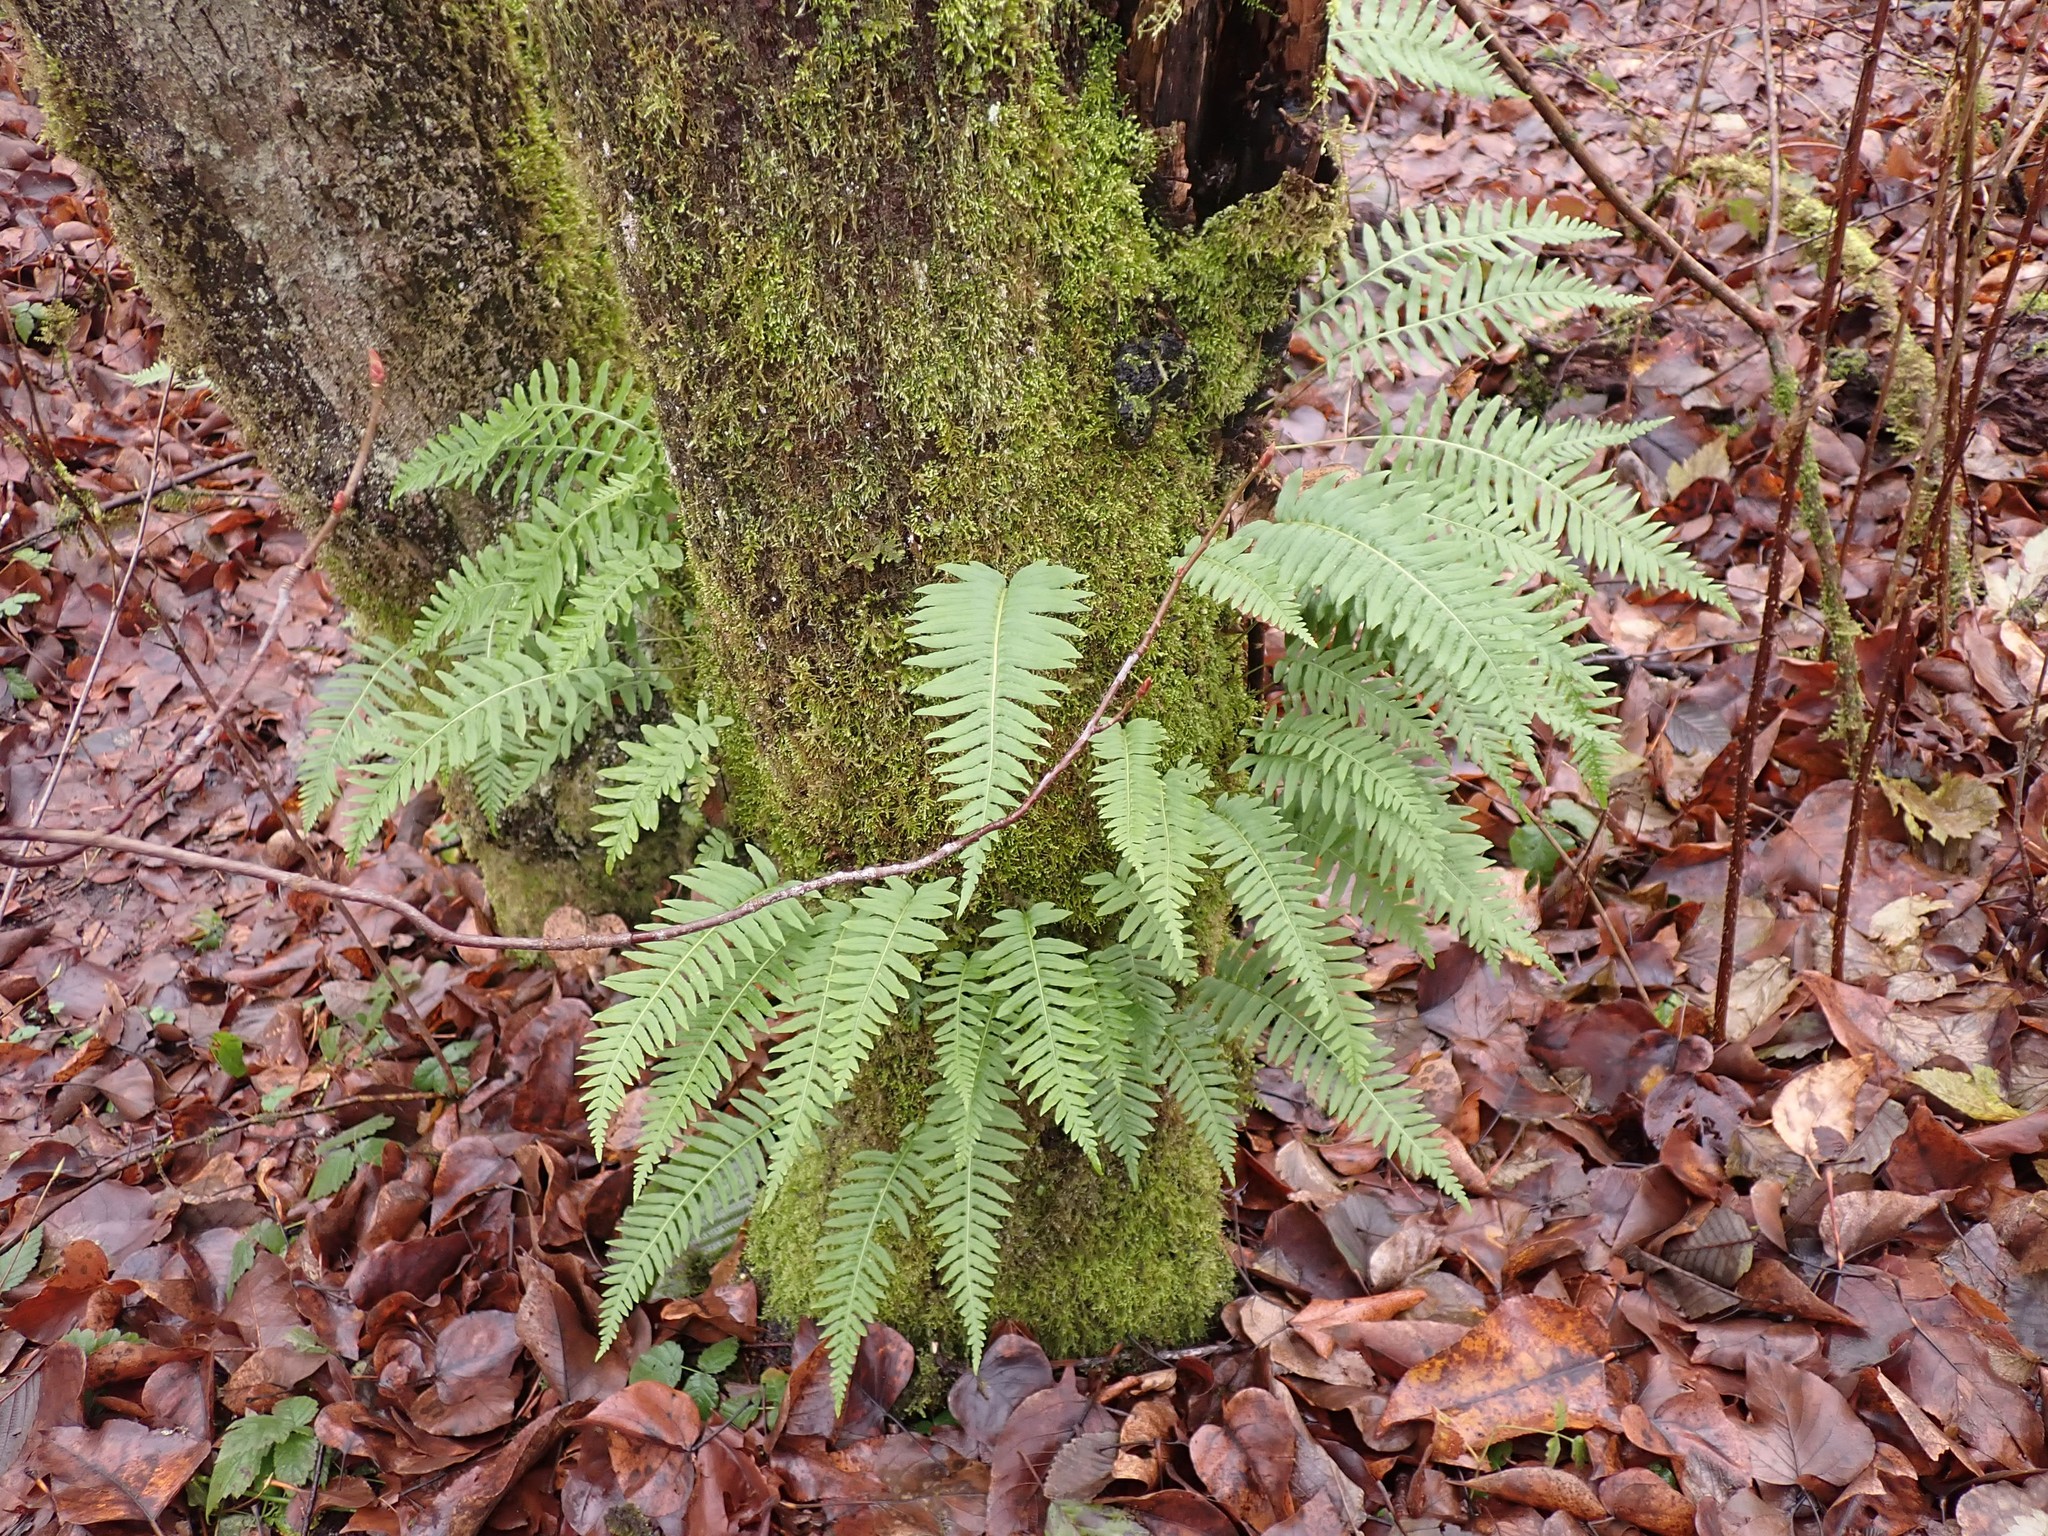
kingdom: Plantae
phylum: Tracheophyta
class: Polypodiopsida
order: Polypodiales
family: Polypodiaceae
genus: Polypodium
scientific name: Polypodium glycyrrhiza
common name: Licorice fern
